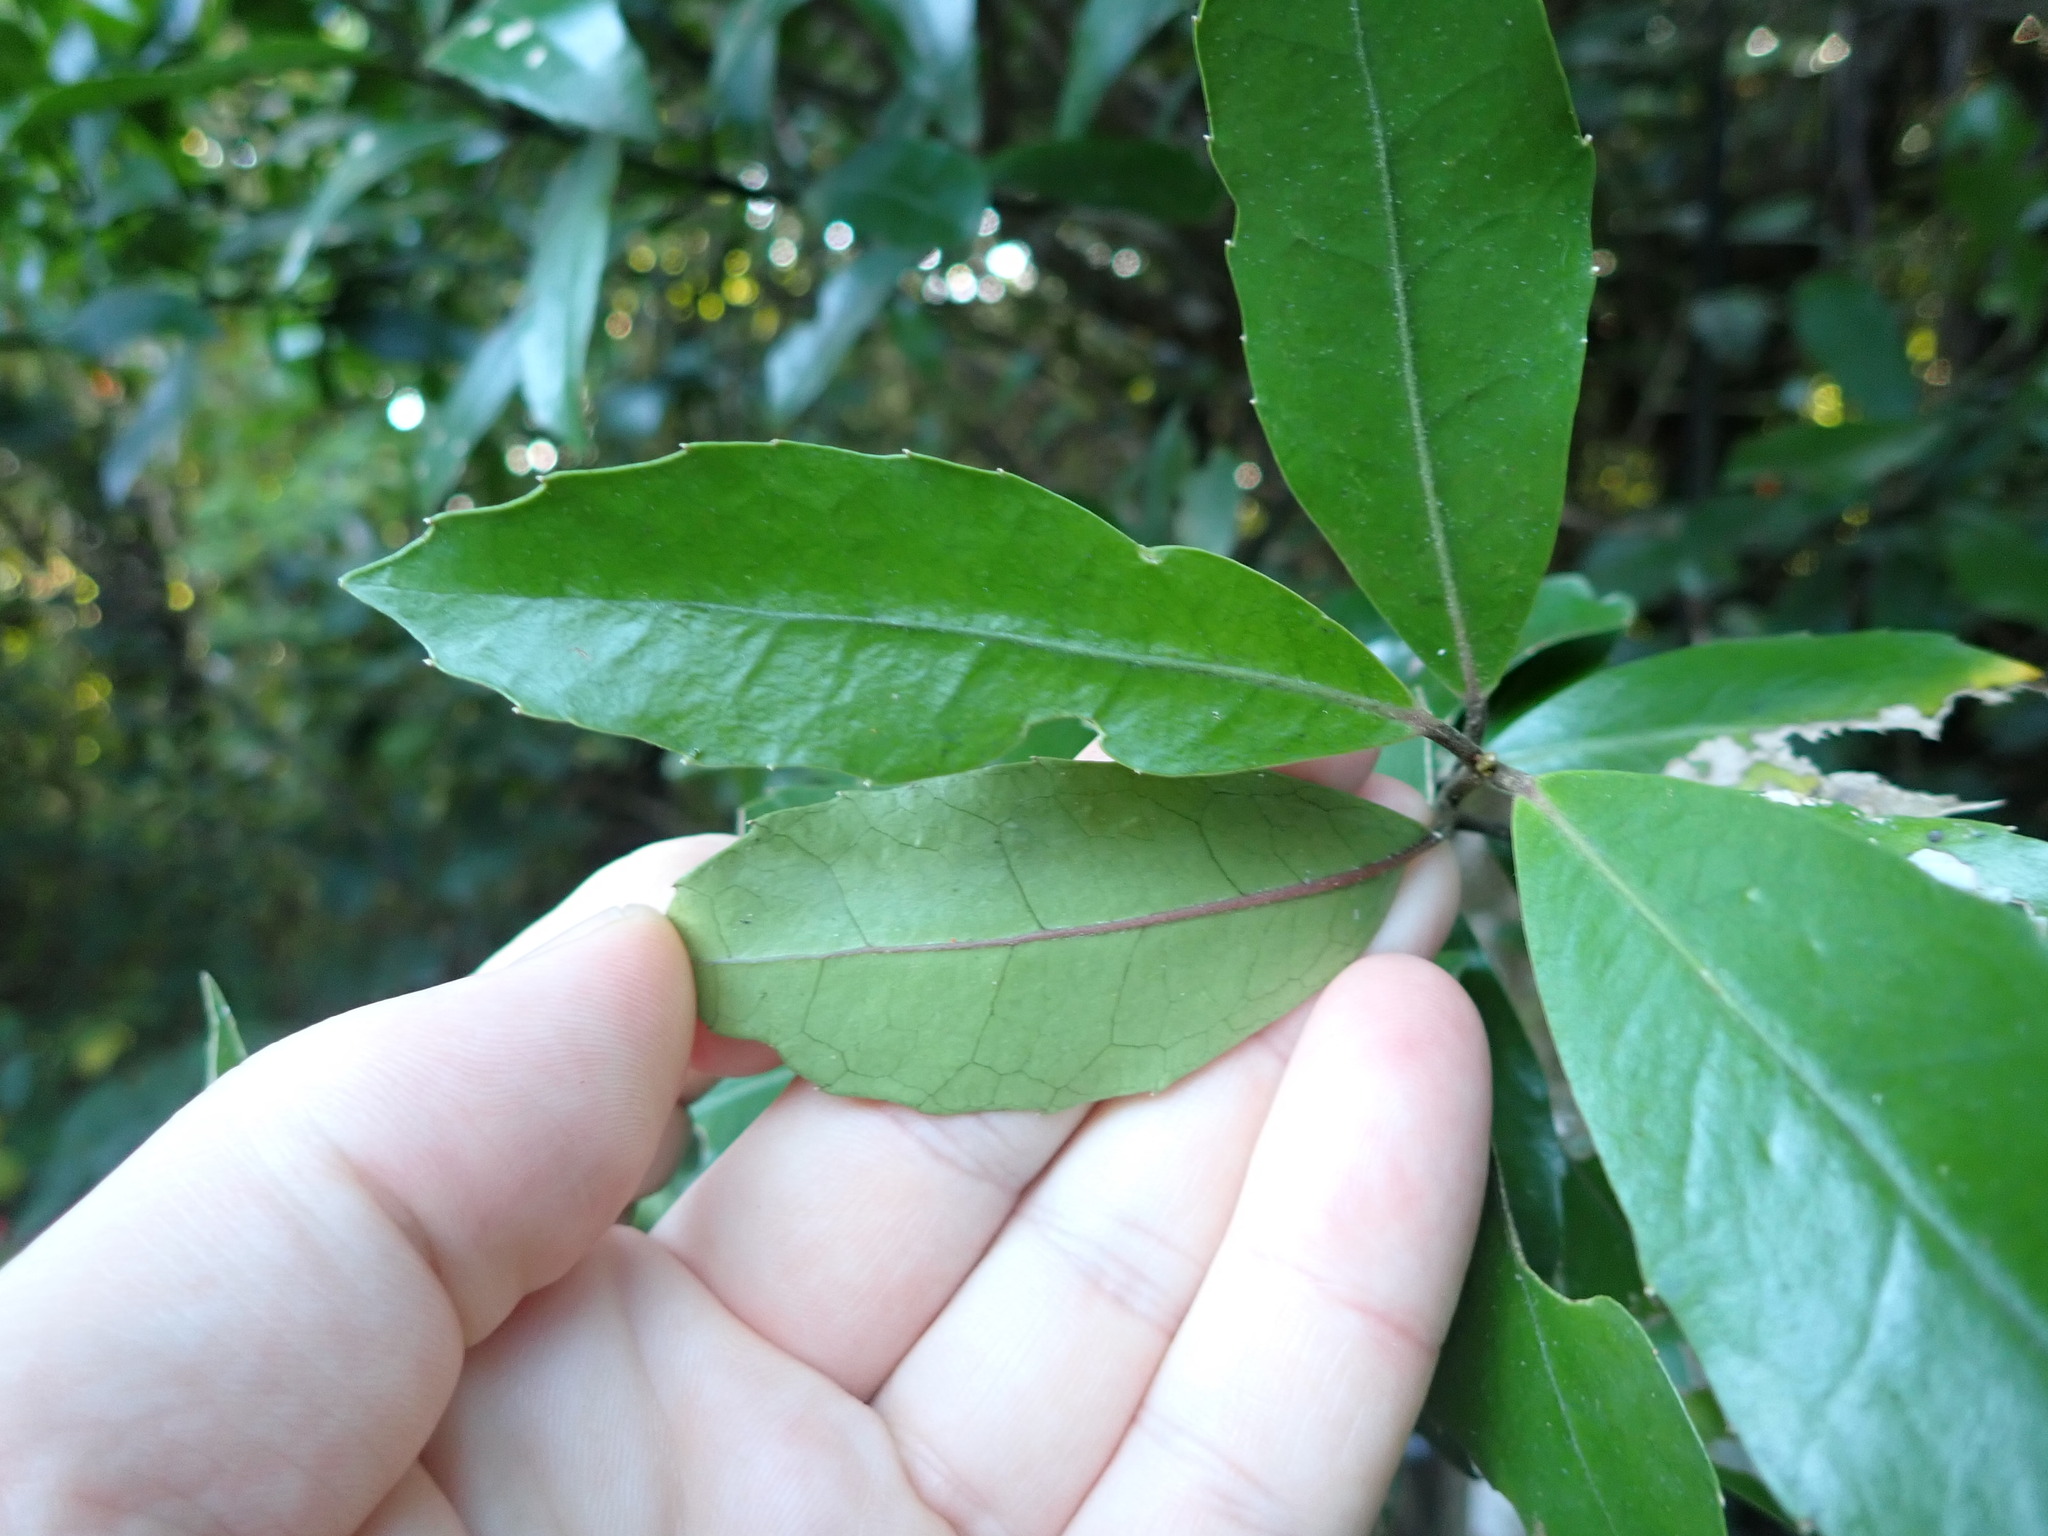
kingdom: Plantae
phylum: Tracheophyta
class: Magnoliopsida
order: Laurales
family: Monimiaceae
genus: Hedycarya
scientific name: Hedycarya arborea
